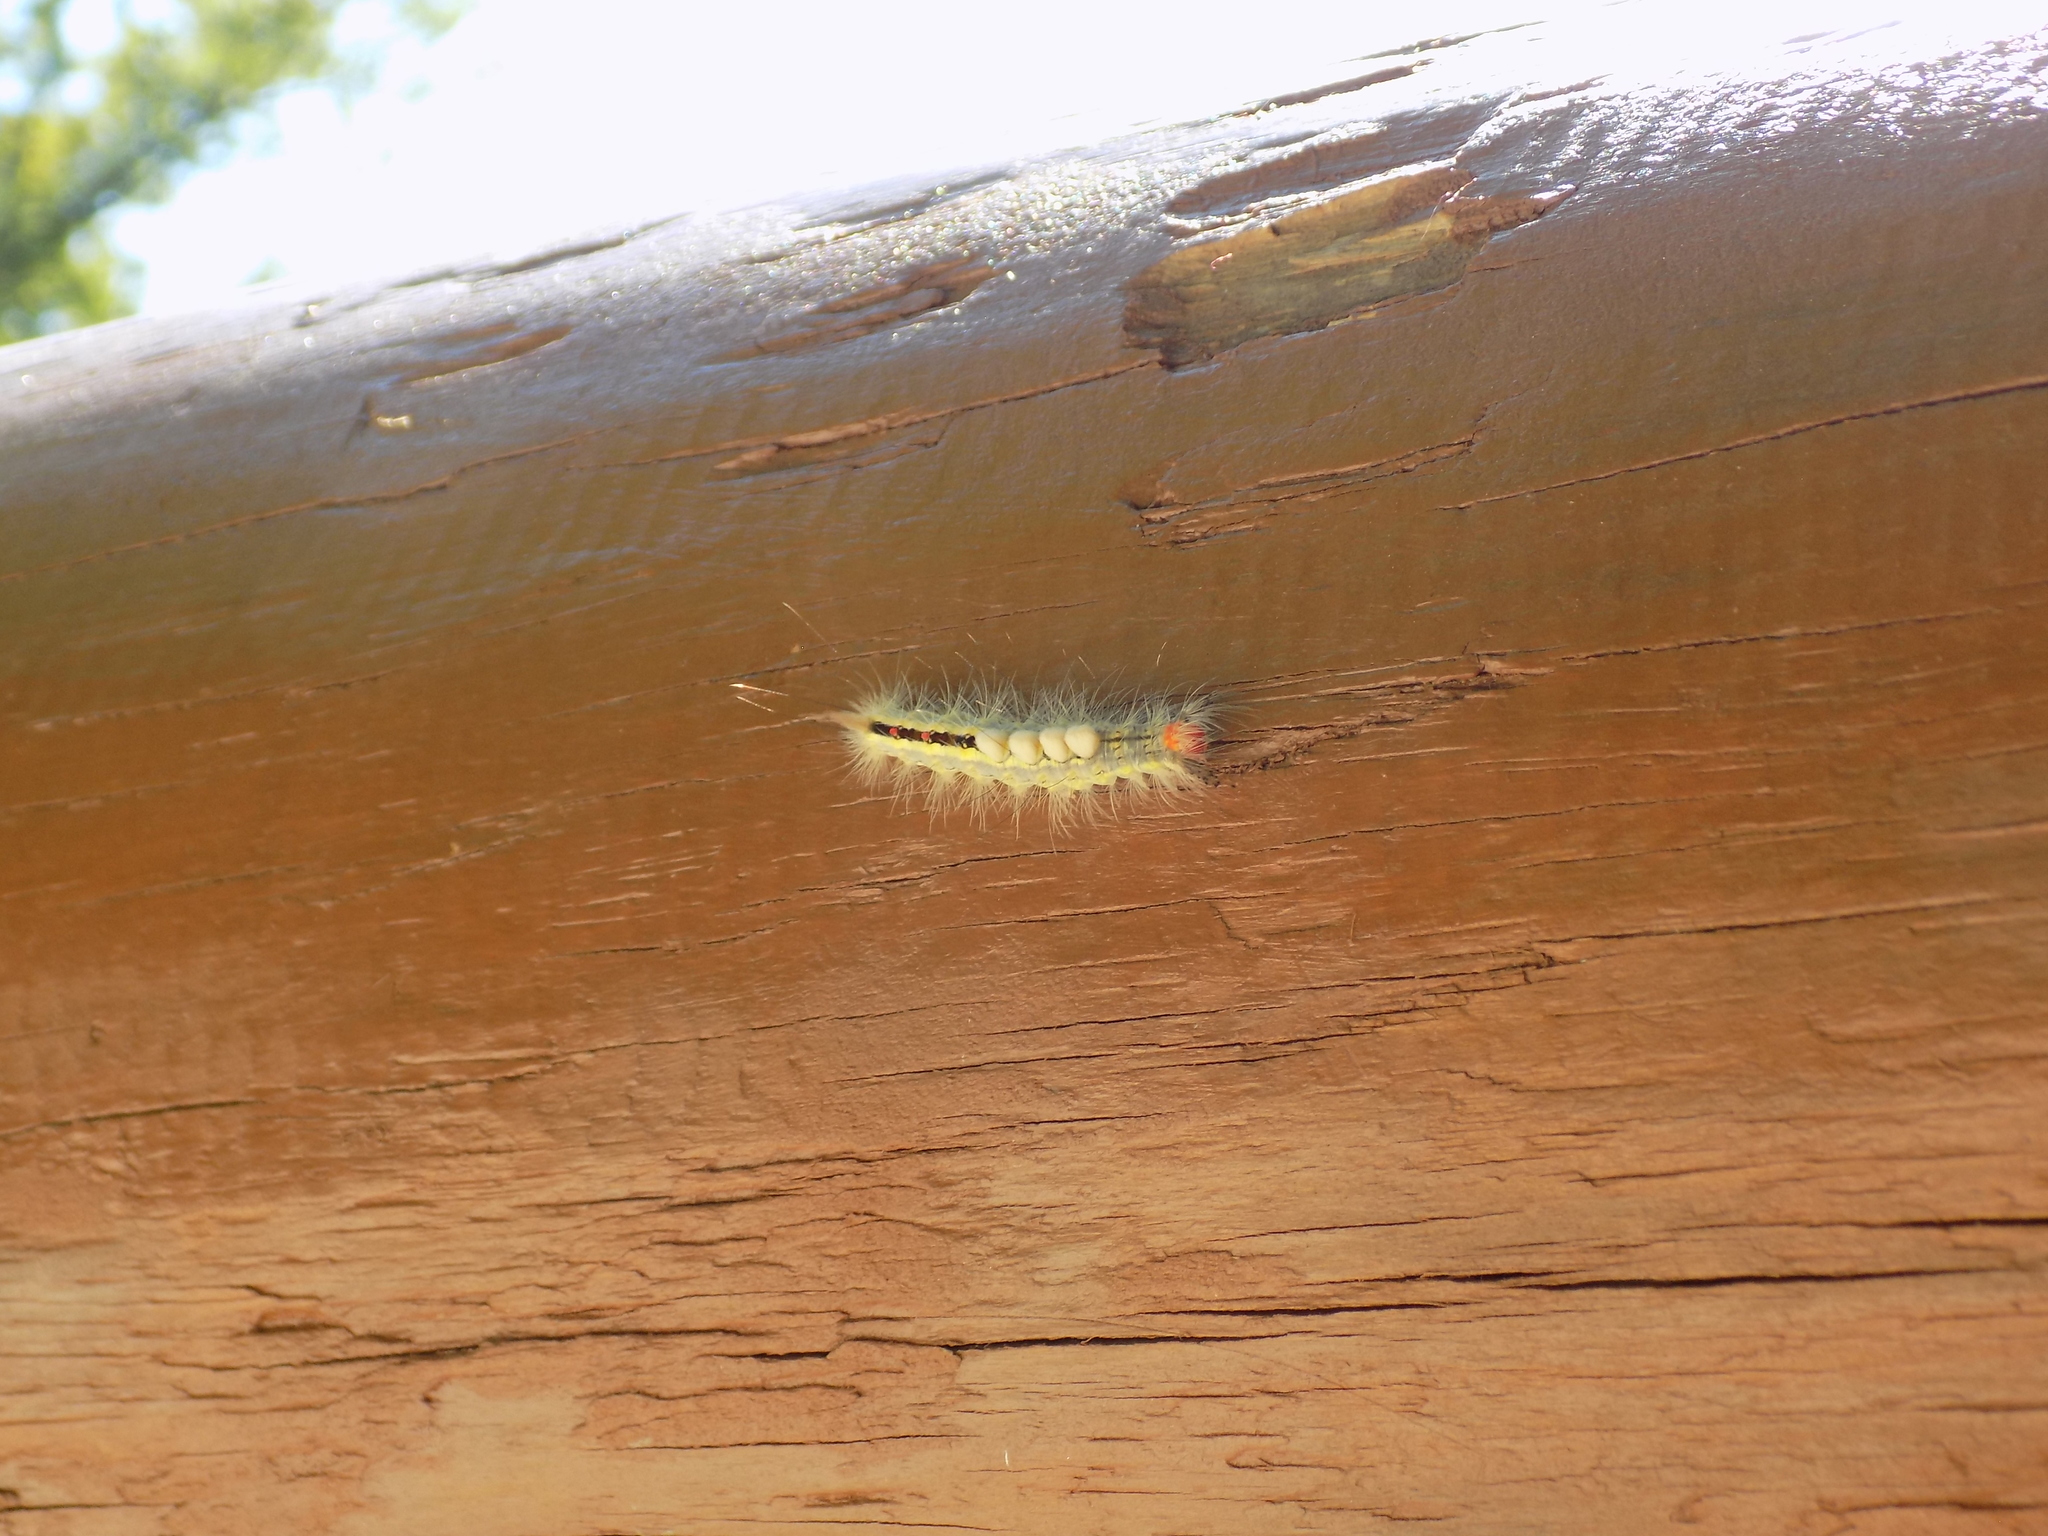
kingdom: Animalia
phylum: Arthropoda
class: Insecta
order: Lepidoptera
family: Erebidae
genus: Orgyia
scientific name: Orgyia leucostigma
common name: White-marked tussock moth
